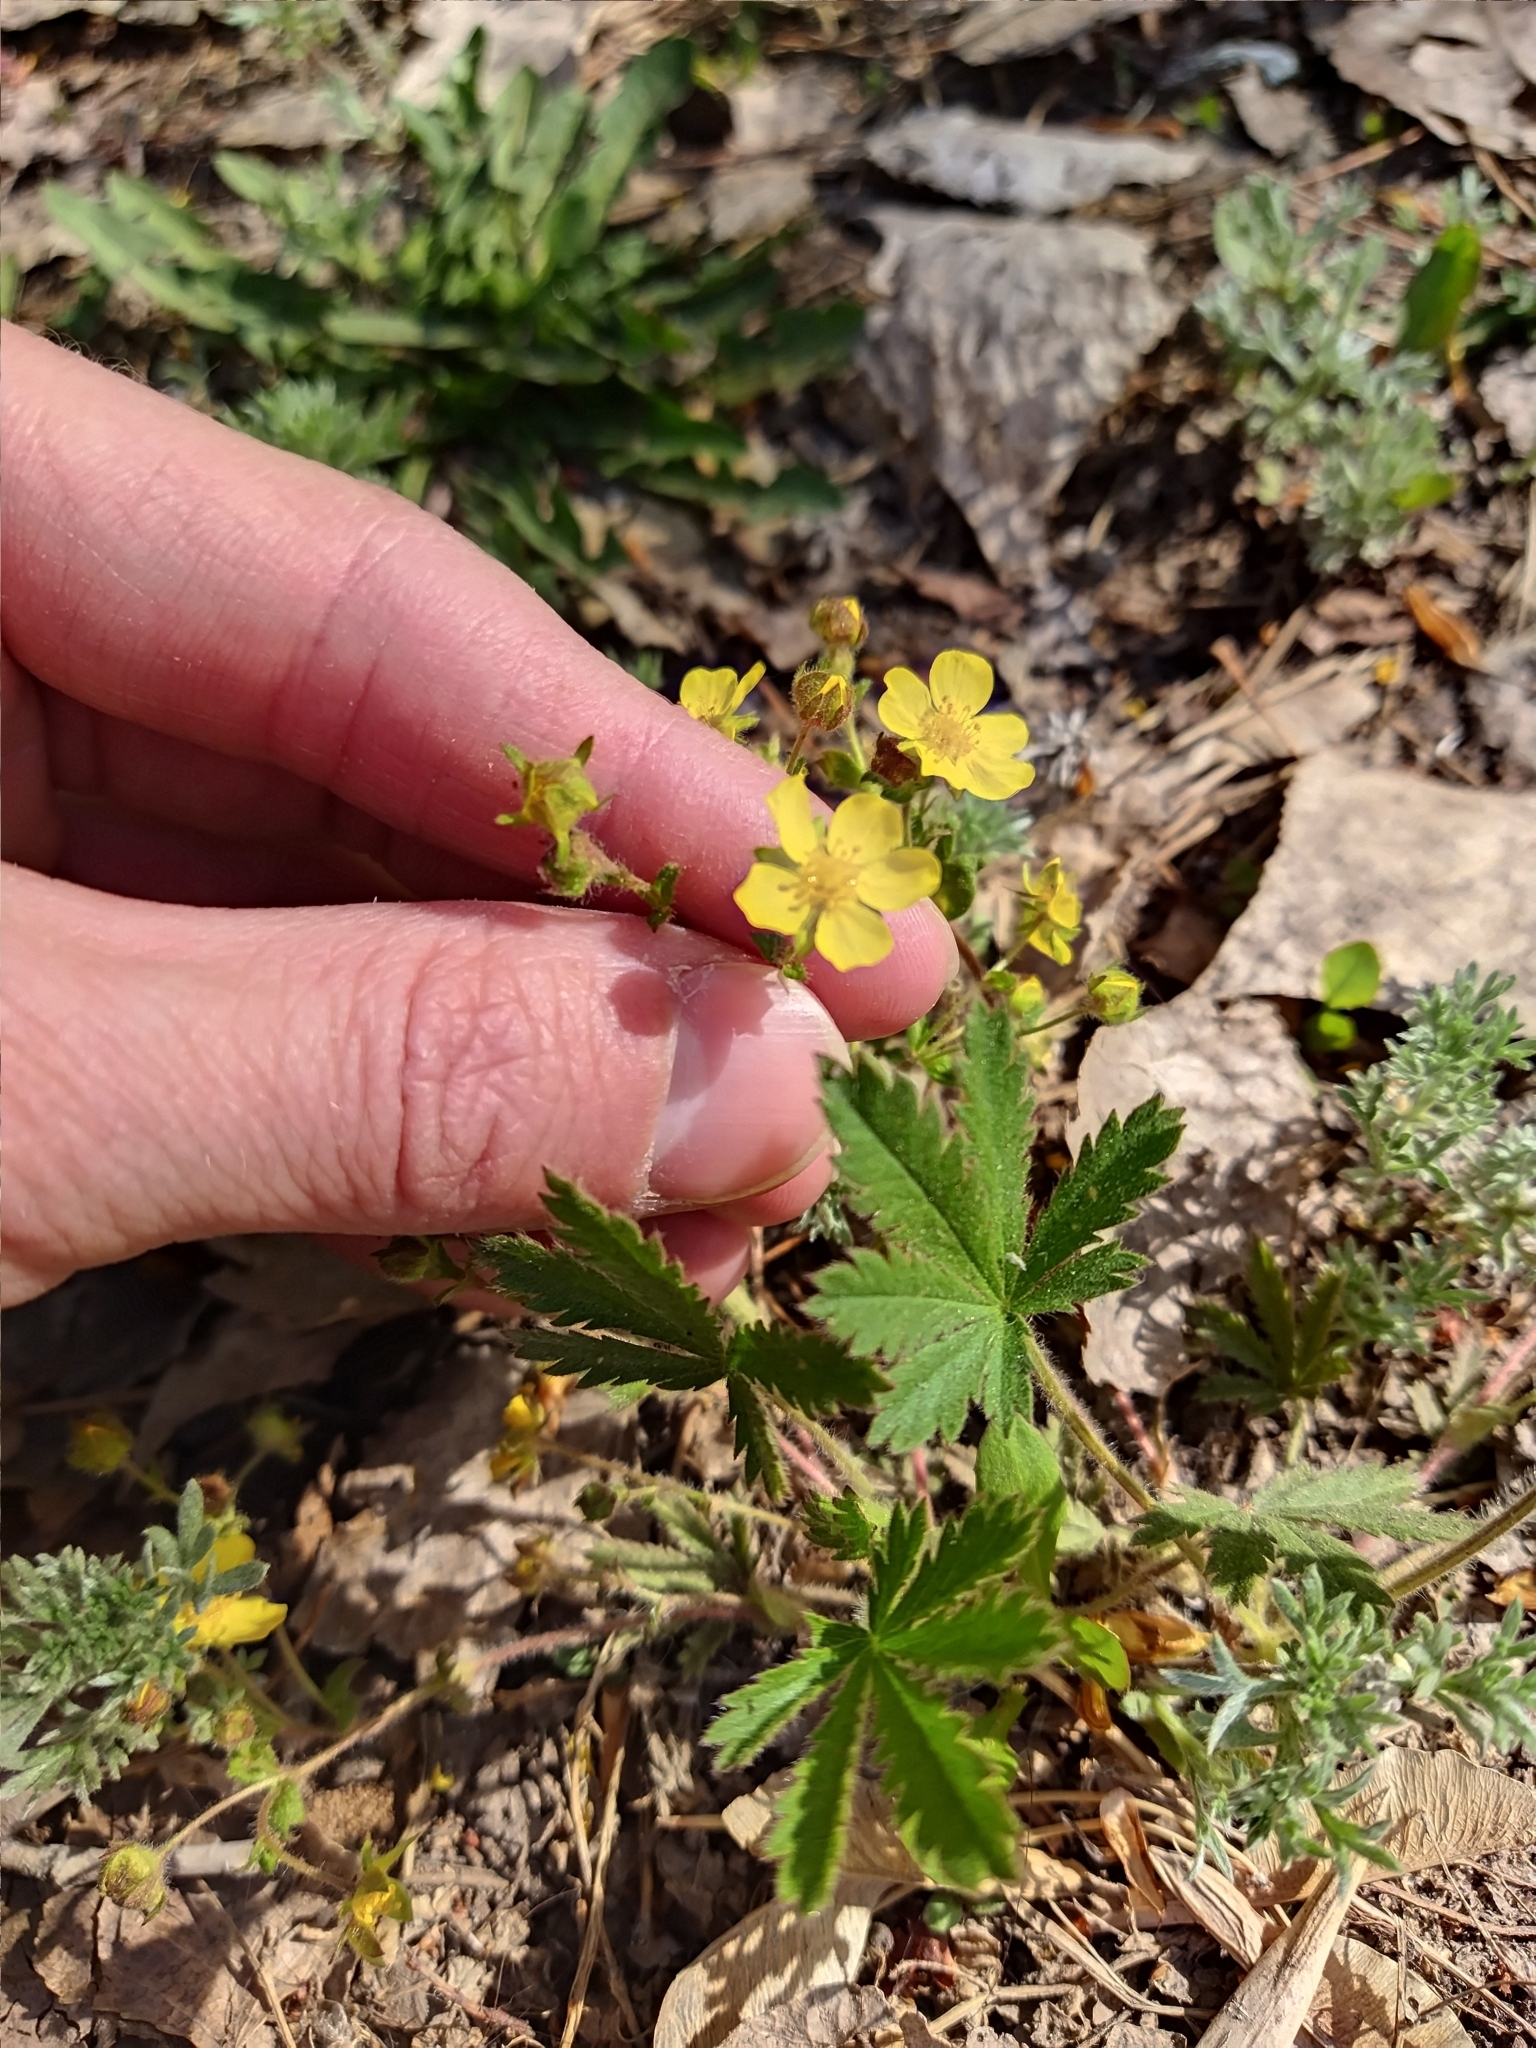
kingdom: Plantae
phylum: Tracheophyta
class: Magnoliopsida
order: Rosales
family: Rosaceae
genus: Potentilla
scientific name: Potentilla argentea
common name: Hoary cinquefoil
